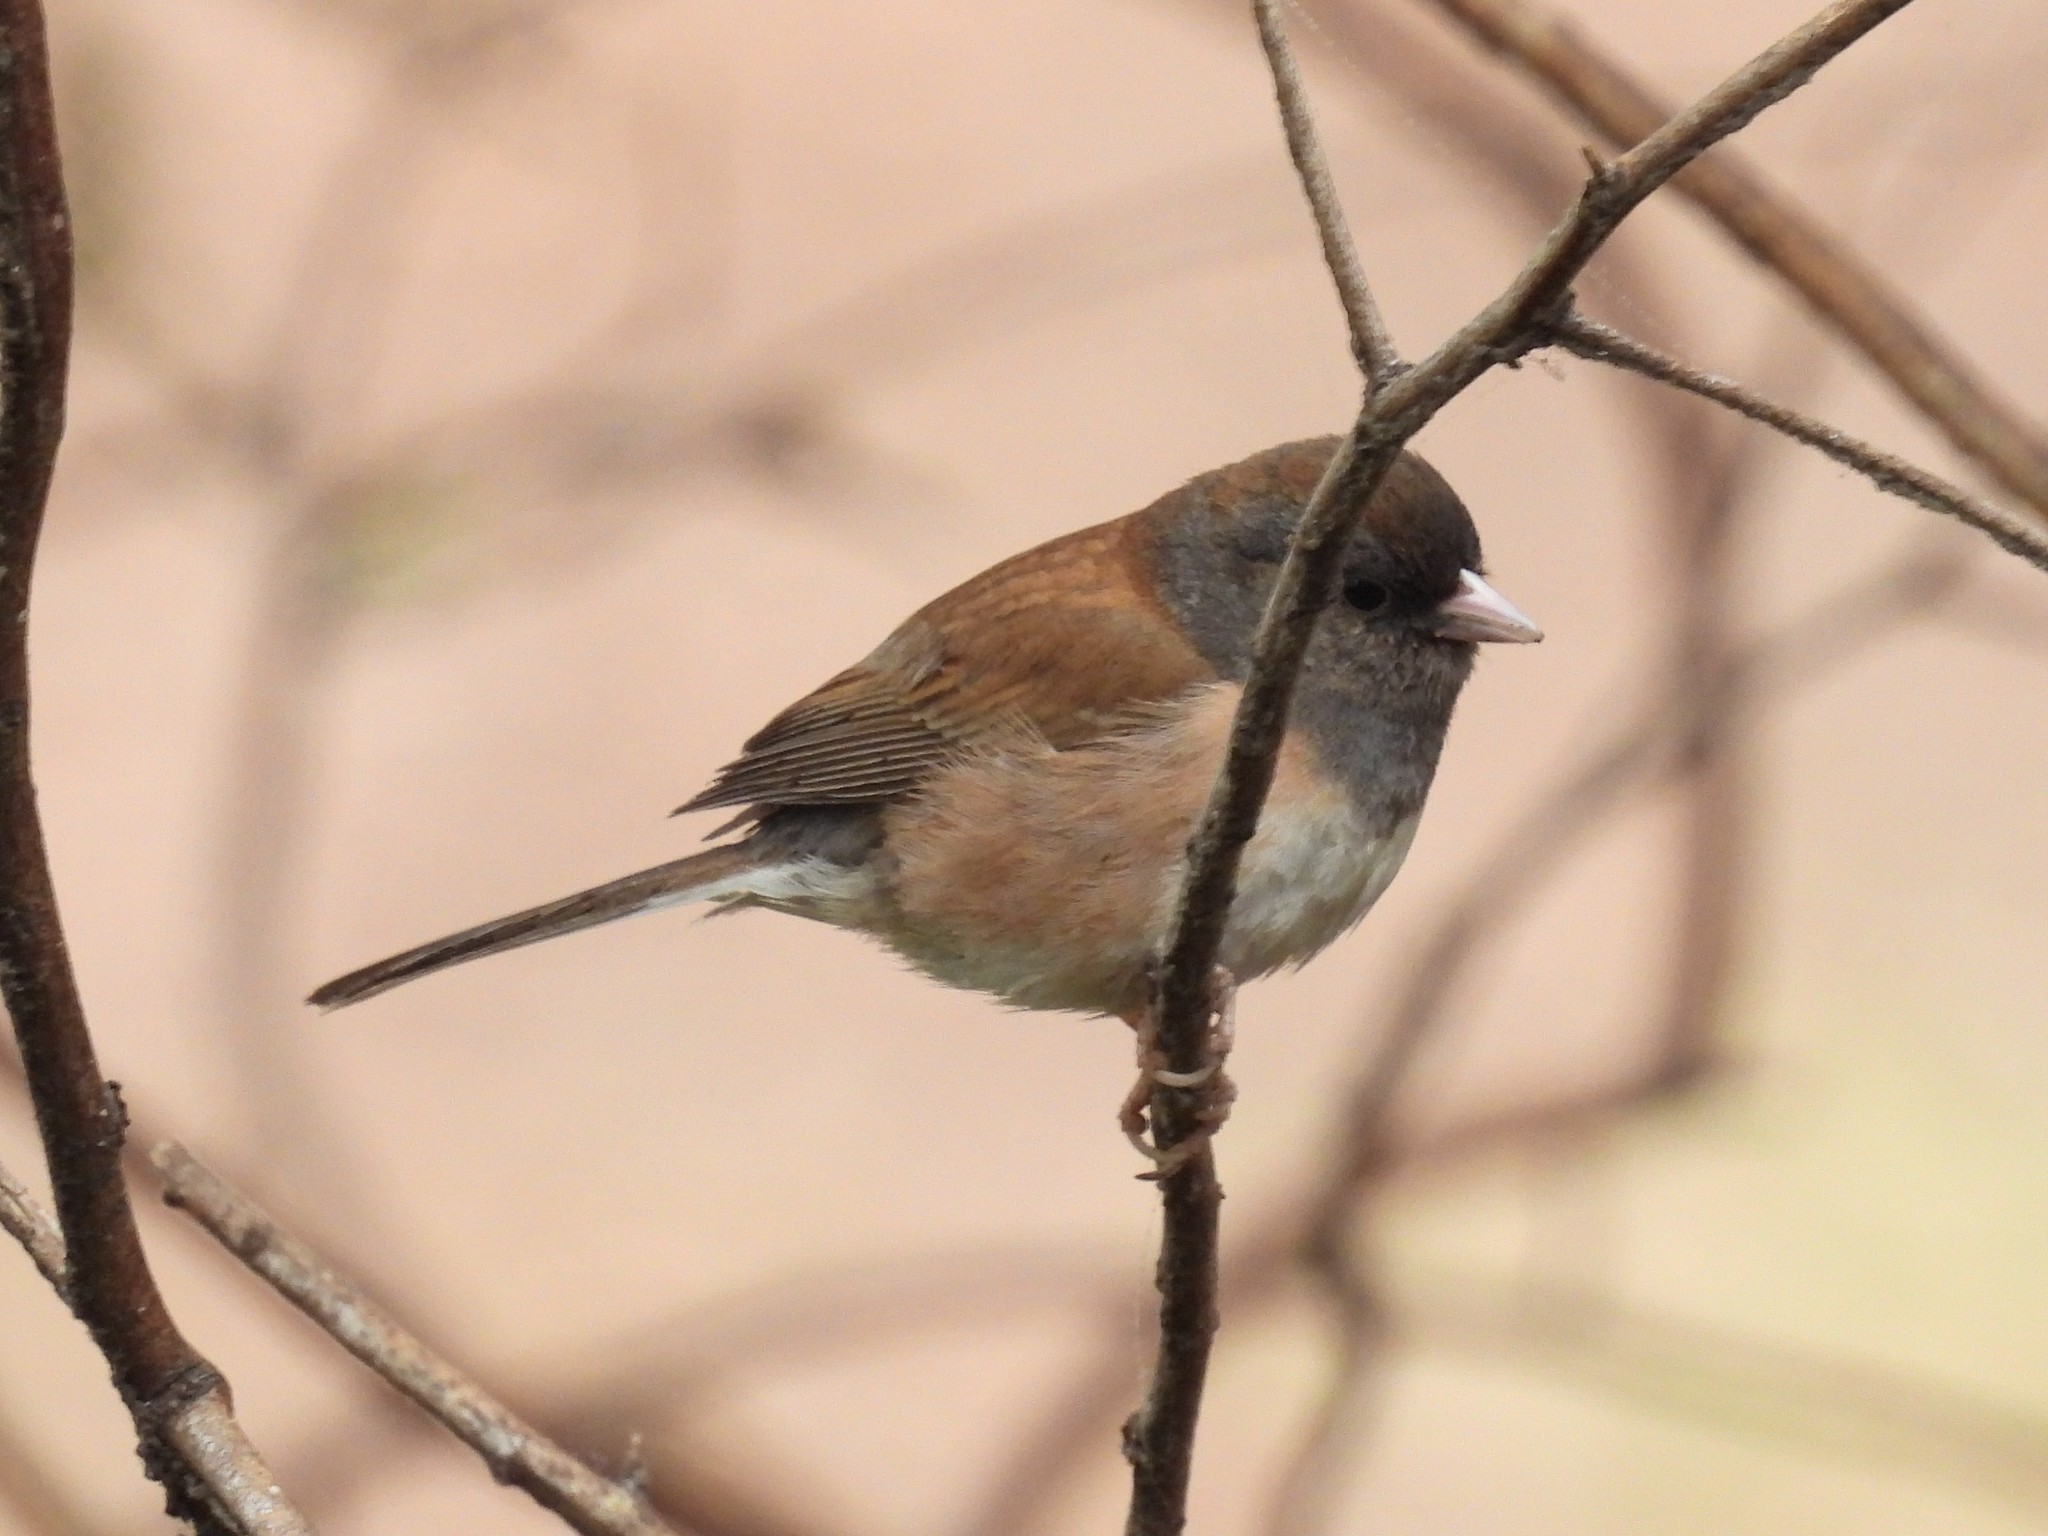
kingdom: Animalia
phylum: Chordata
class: Aves
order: Passeriformes
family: Passerellidae
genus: Junco
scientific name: Junco hyemalis
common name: Dark-eyed junco
